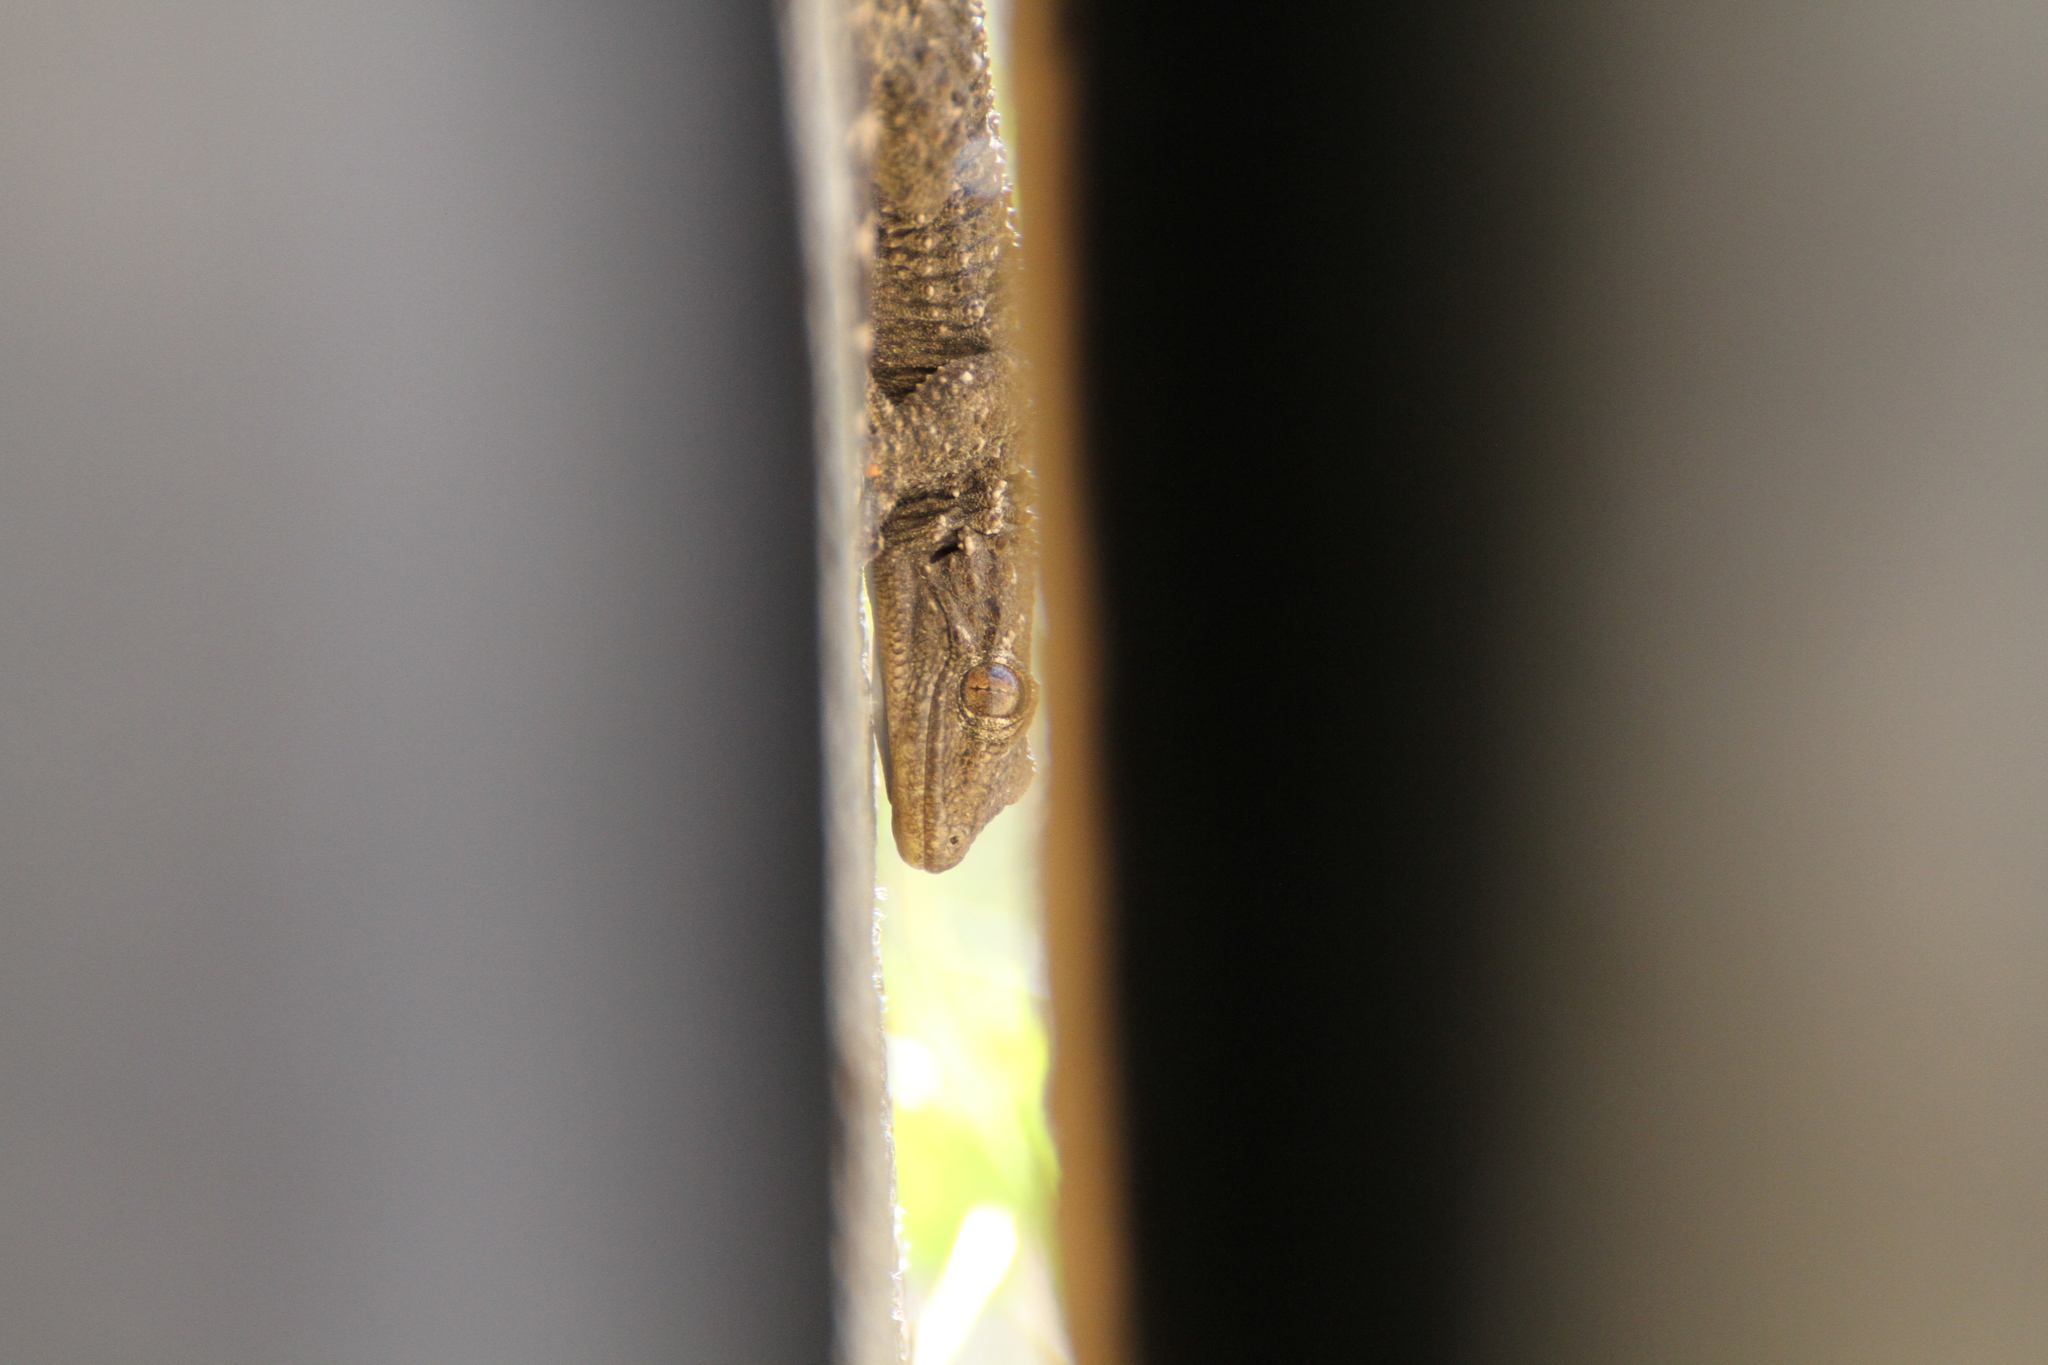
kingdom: Animalia
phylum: Chordata
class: Squamata
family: Phyllodactylidae
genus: Tarentola
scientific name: Tarentola mauritanica
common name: Moorish gecko
